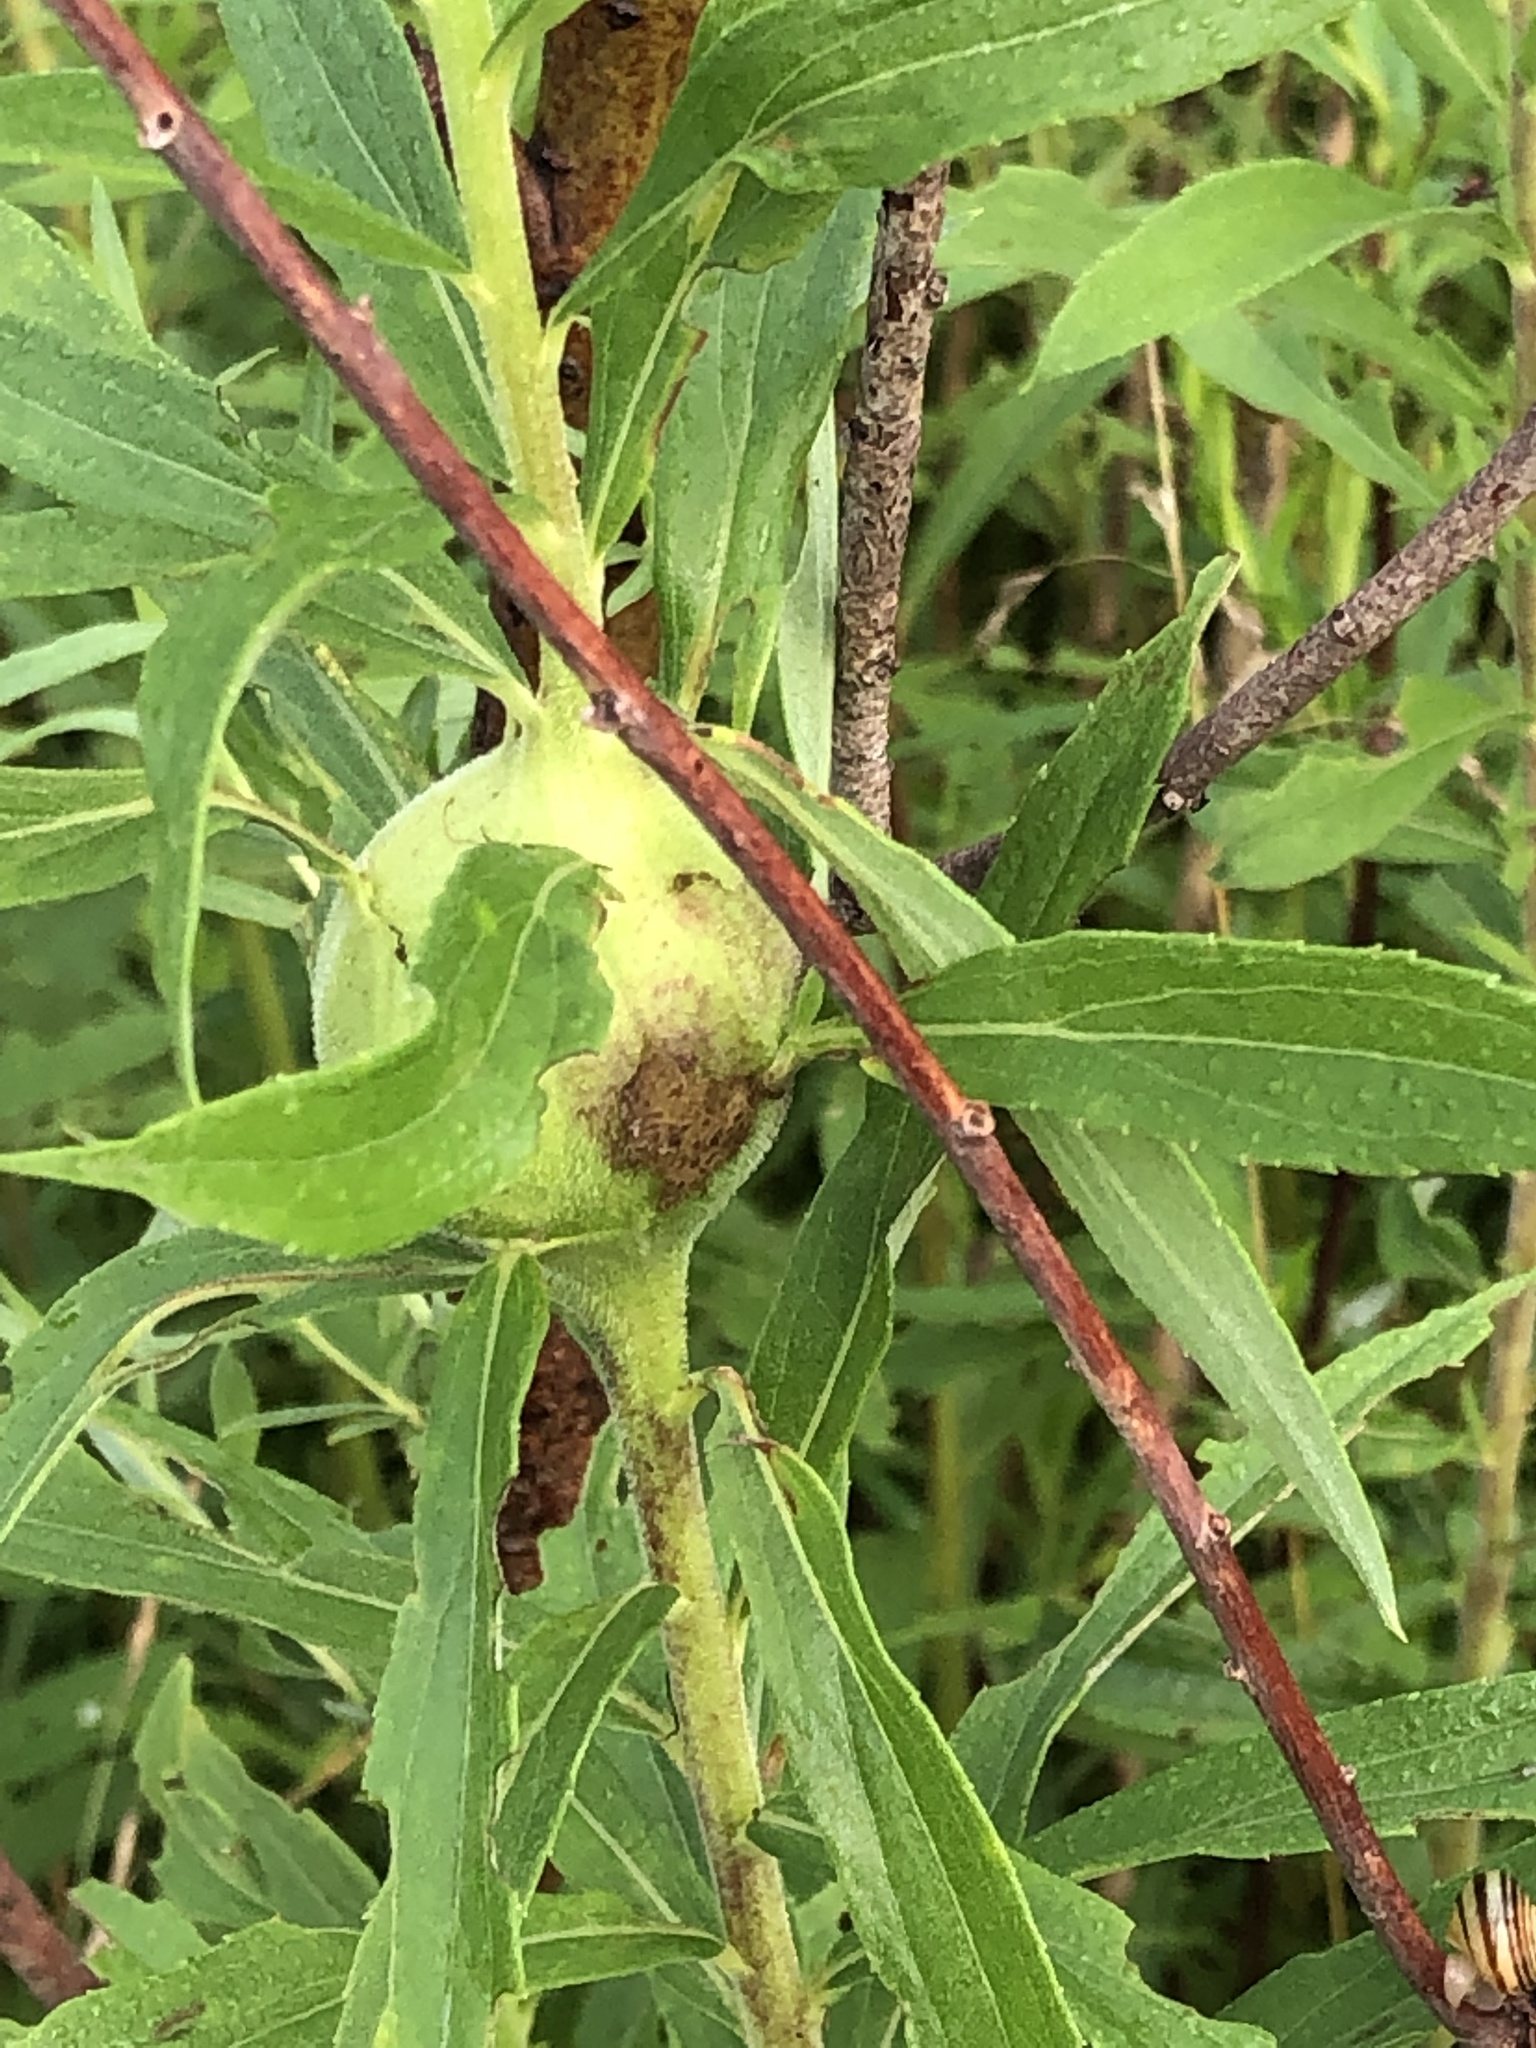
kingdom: Animalia
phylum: Arthropoda
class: Insecta
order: Diptera
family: Tephritidae
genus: Eurosta
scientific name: Eurosta solidaginis
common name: Goldenrod gall fly
